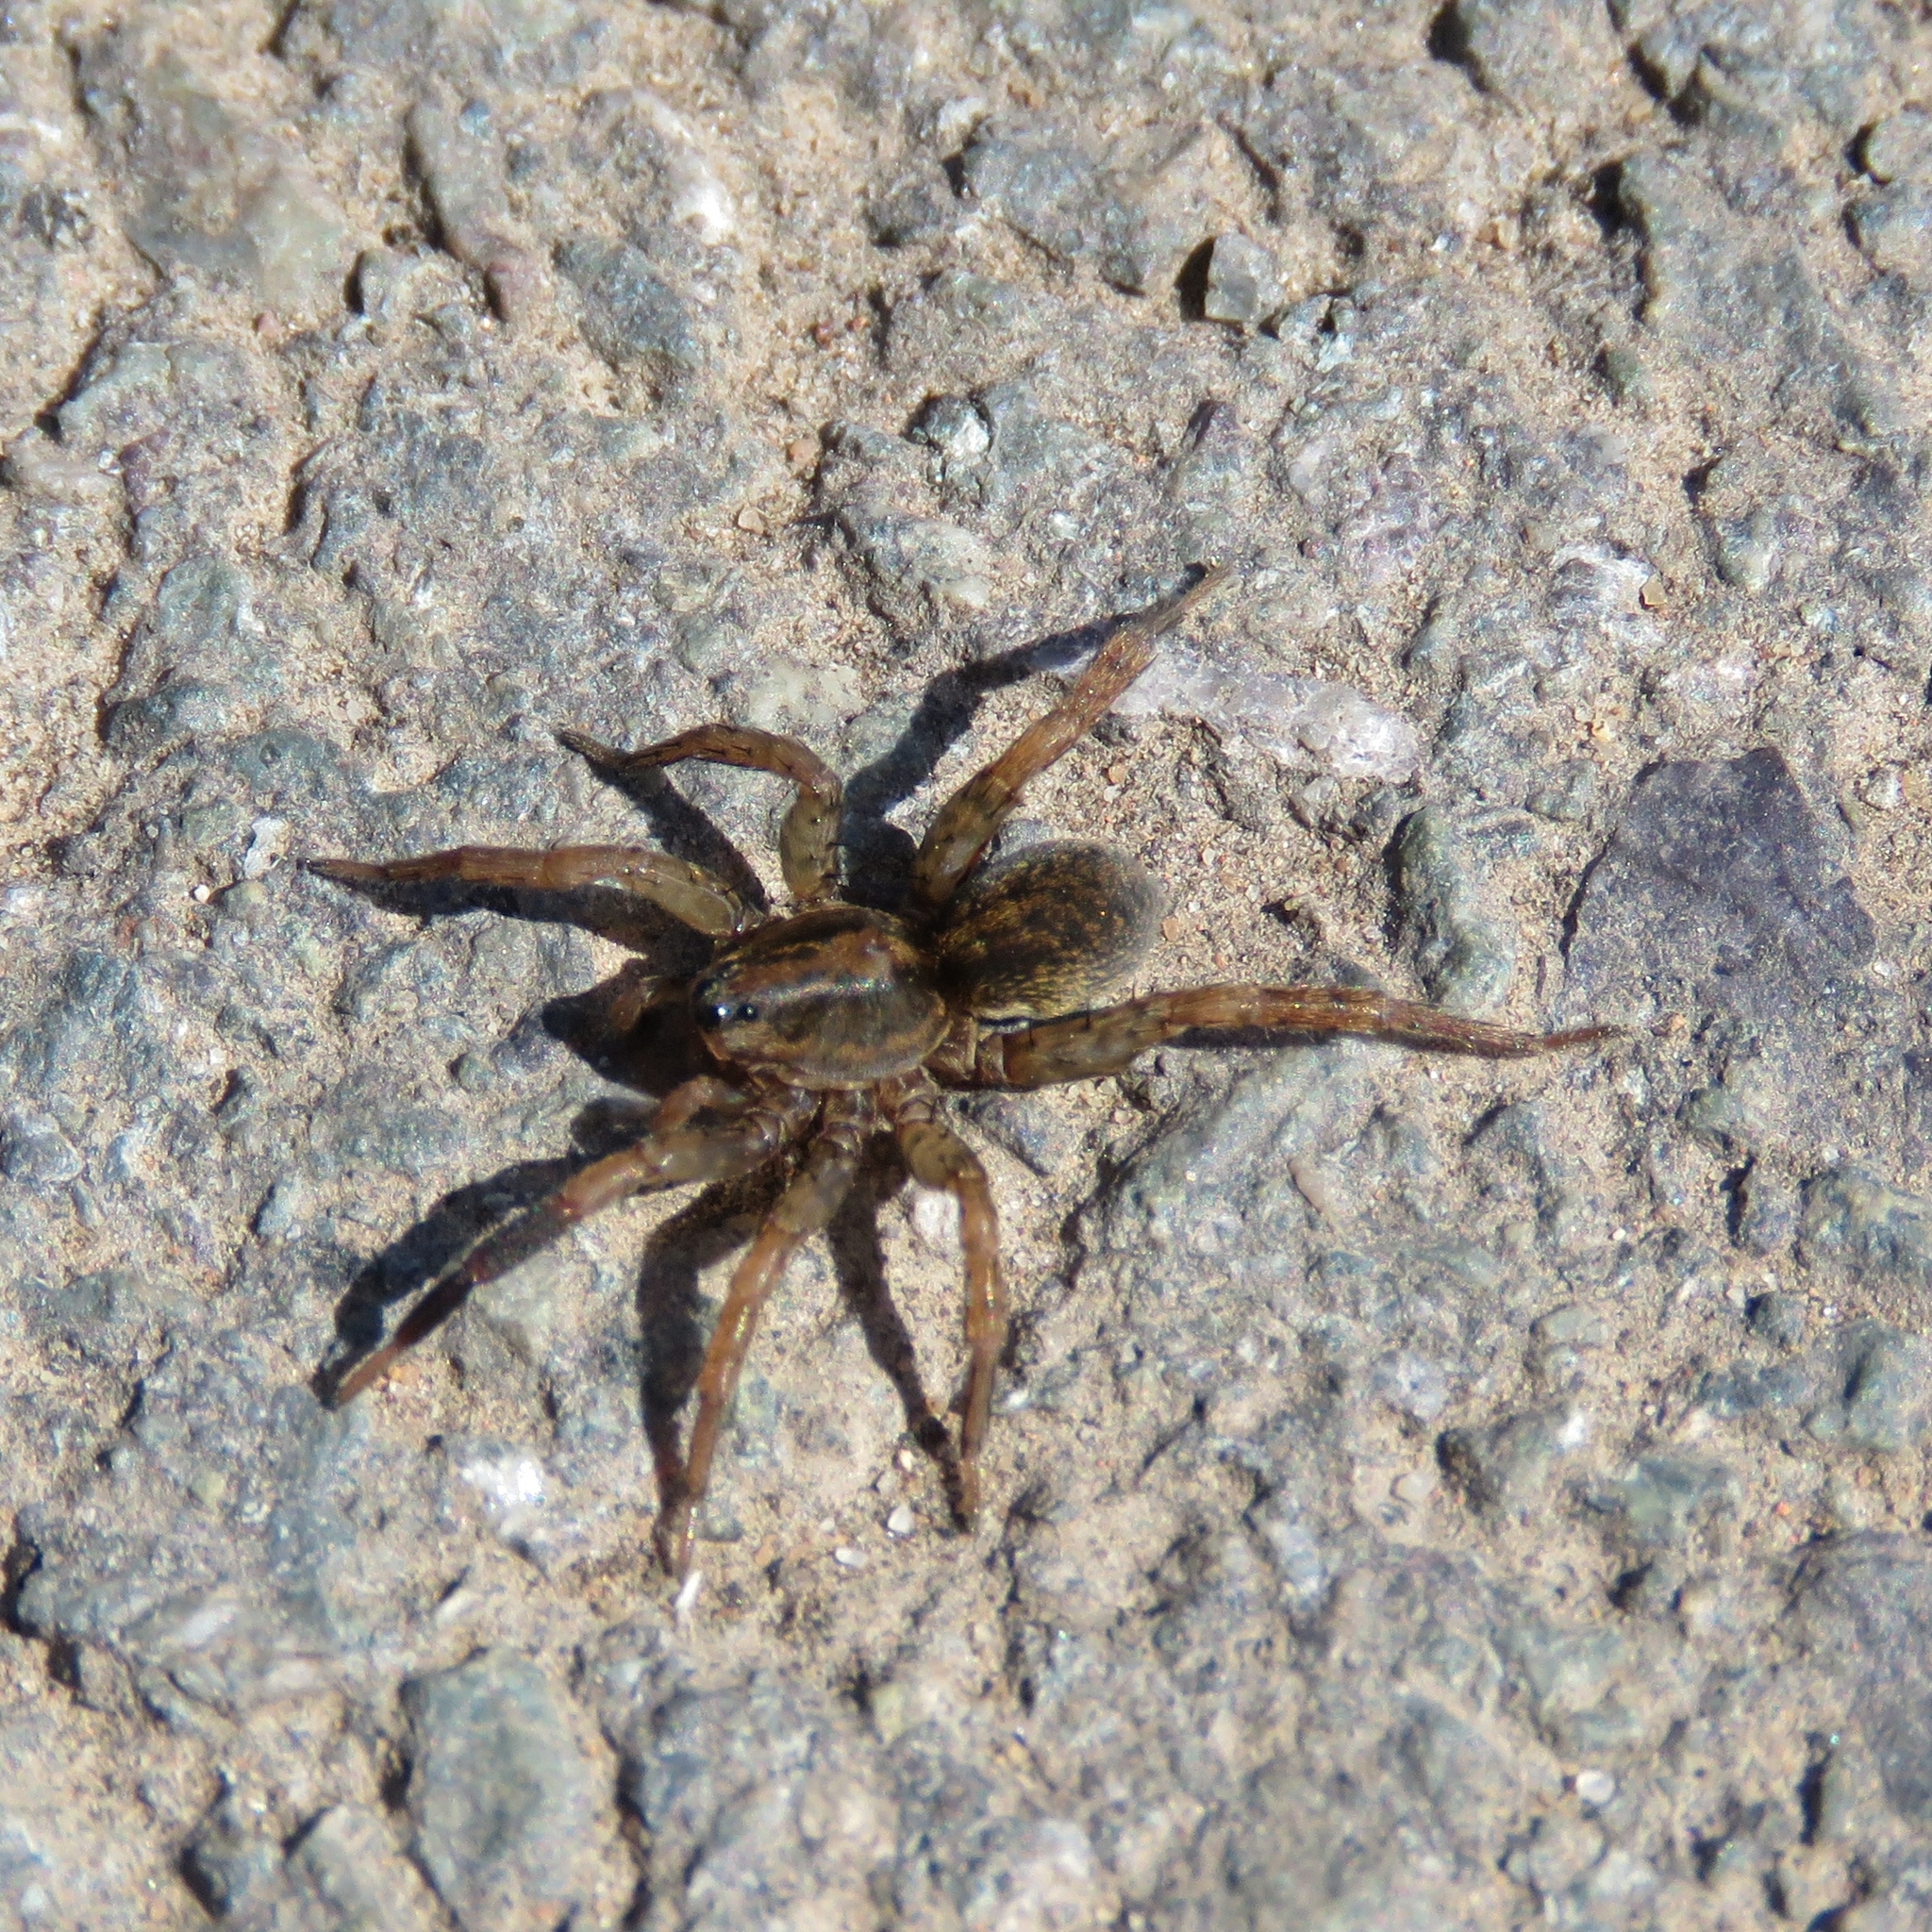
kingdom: Animalia
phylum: Arthropoda
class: Arachnida
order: Araneae
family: Lycosidae
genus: Pardosa
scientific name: Pardosa
